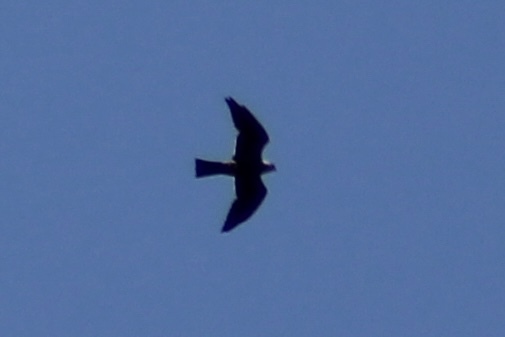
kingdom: Animalia
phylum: Chordata
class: Aves
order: Accipitriformes
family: Accipitridae
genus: Ictinia
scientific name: Ictinia mississippiensis
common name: Mississippi kite
